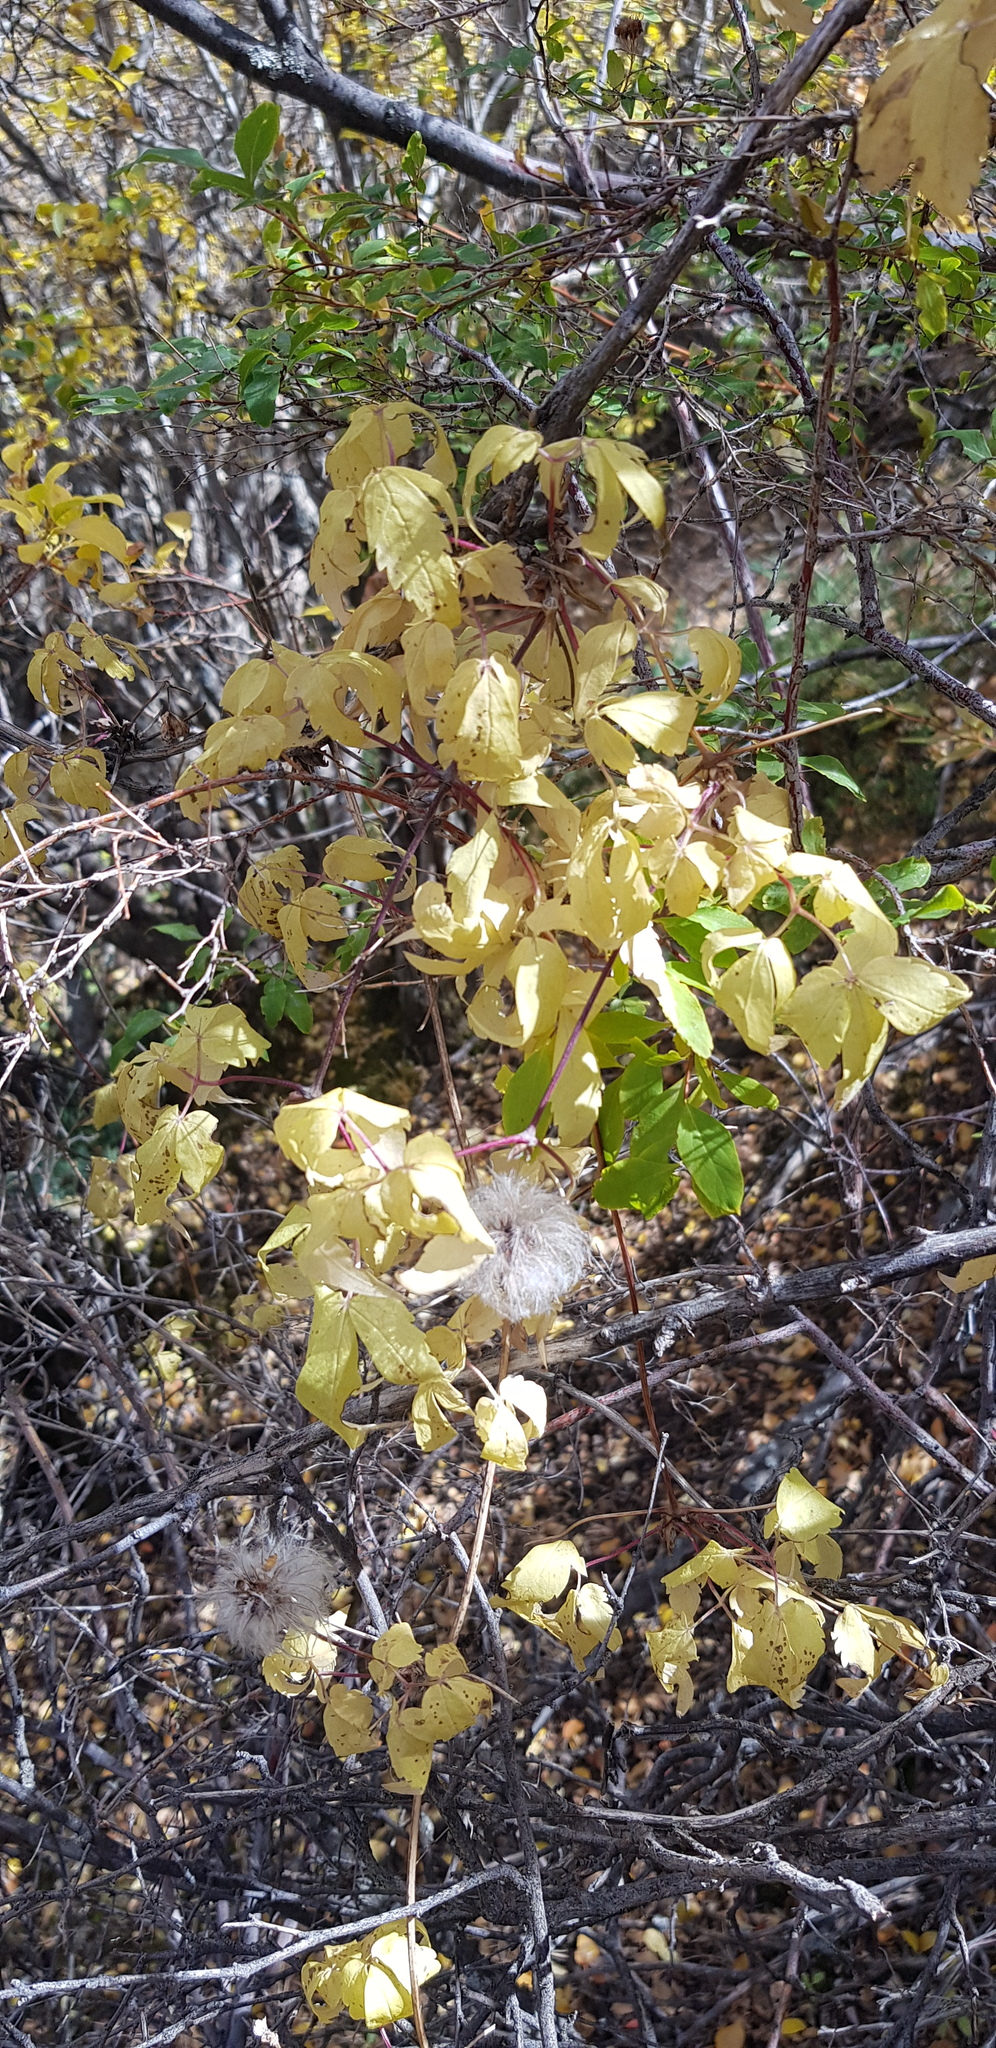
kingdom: Plantae
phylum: Tracheophyta
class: Magnoliopsida
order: Ranunculales
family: Ranunculaceae
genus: Clematis
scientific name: Clematis tangutica
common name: Orange-peel clematis
